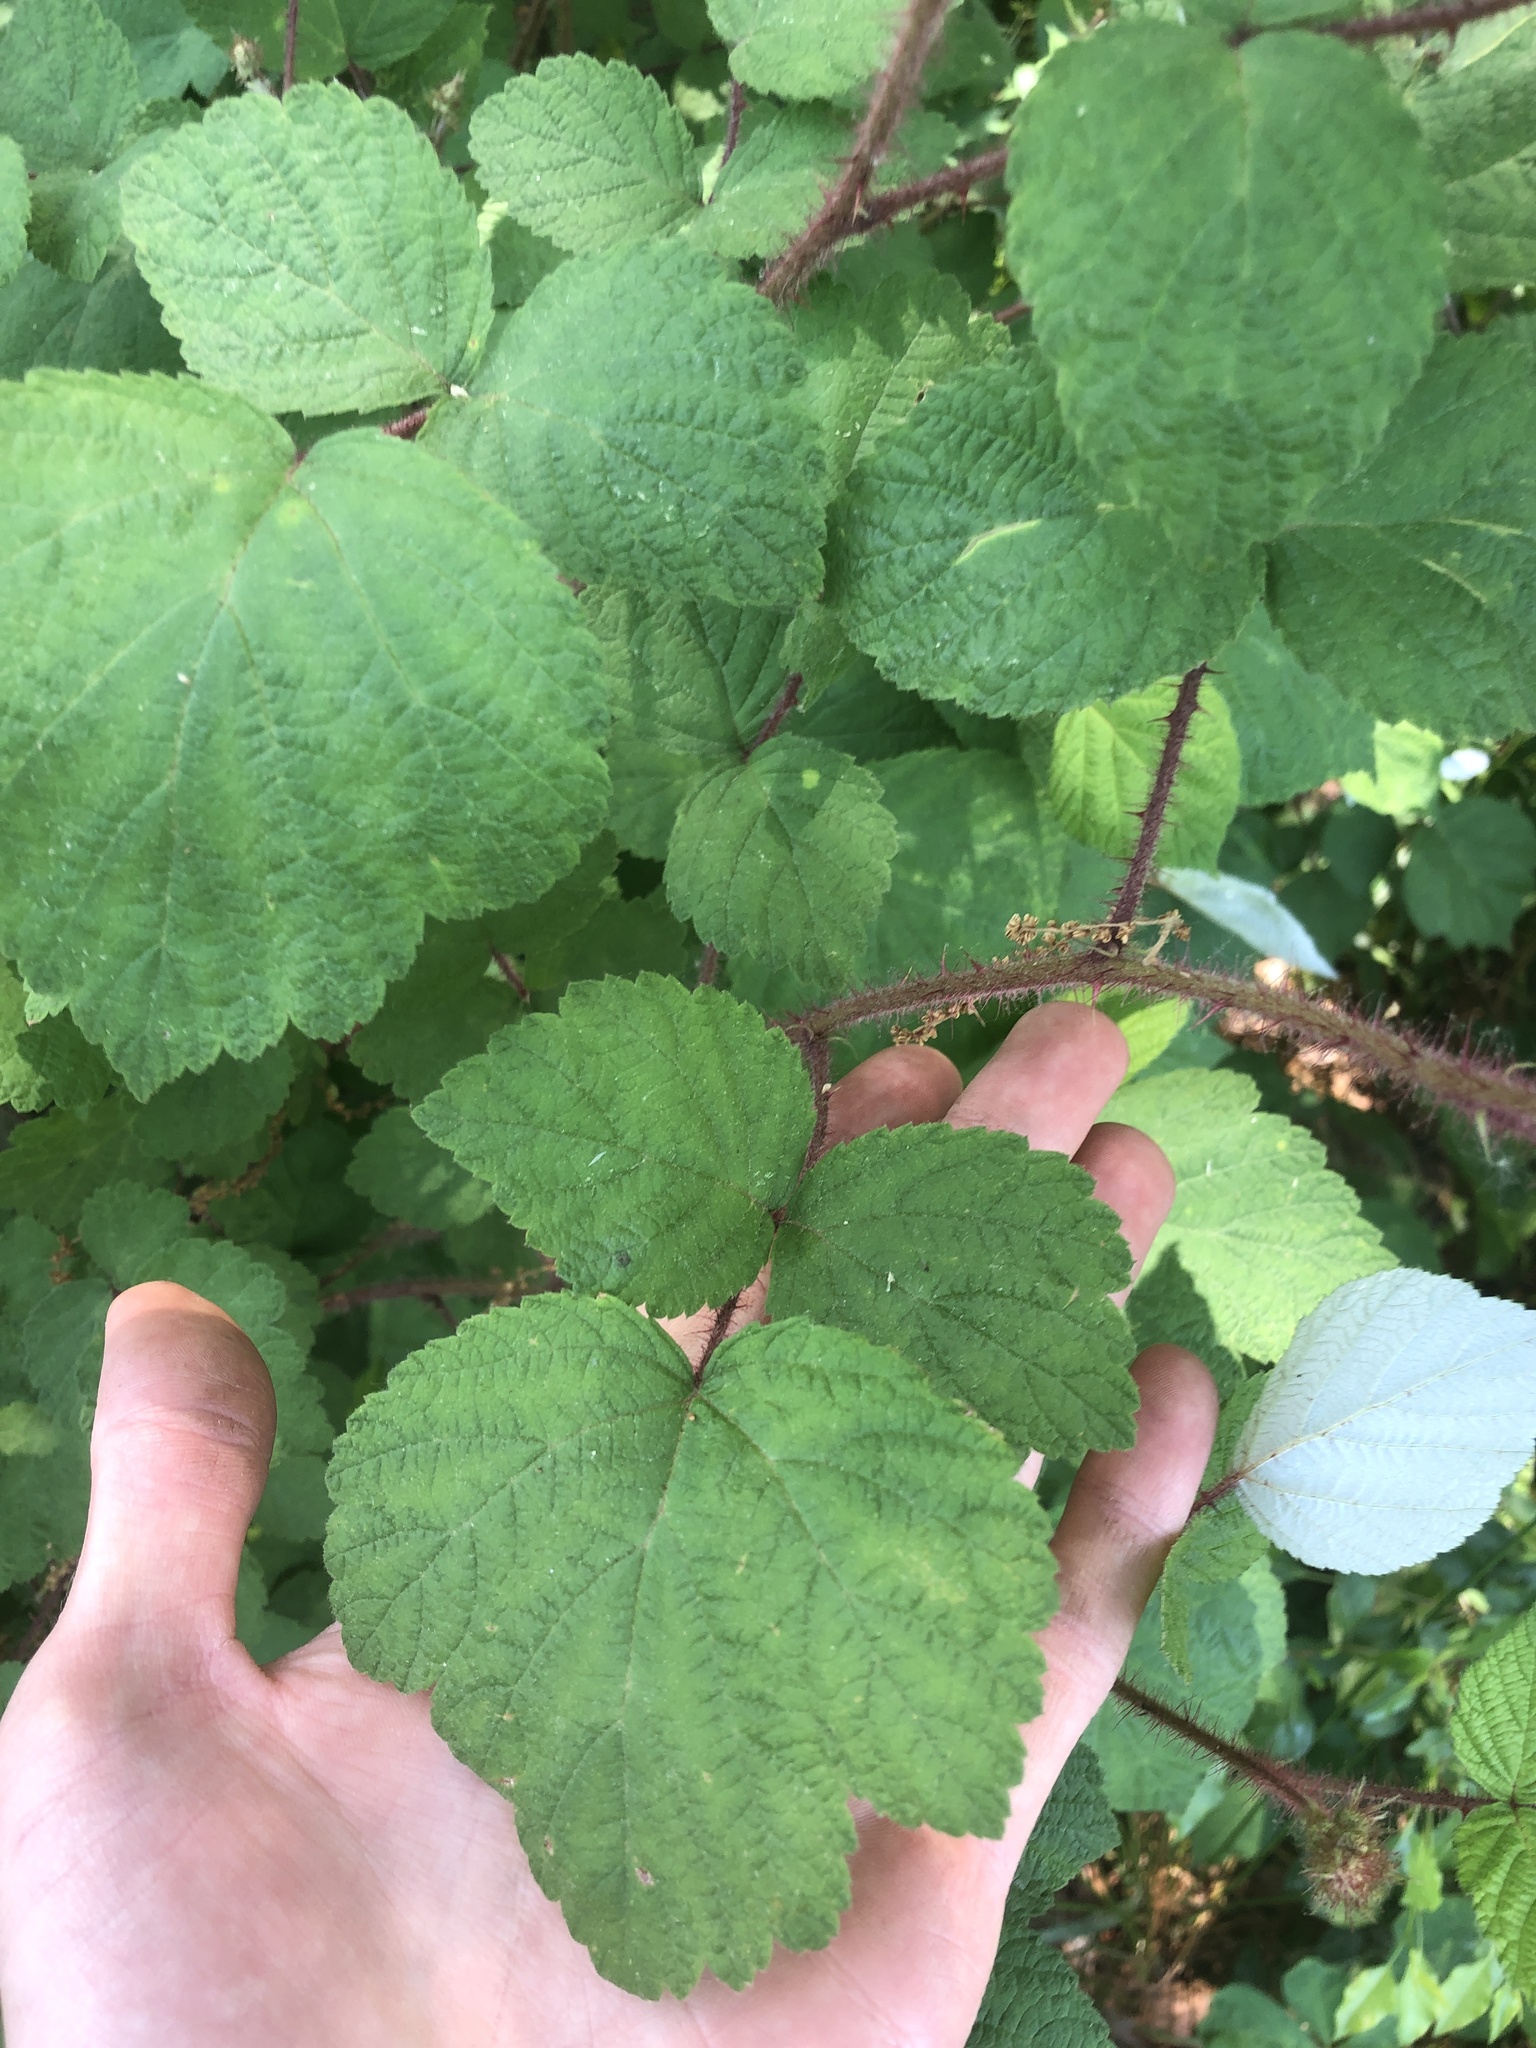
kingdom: Plantae
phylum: Tracheophyta
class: Magnoliopsida
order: Rosales
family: Rosaceae
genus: Rubus
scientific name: Rubus phoenicolasius
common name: Japanese wineberry
